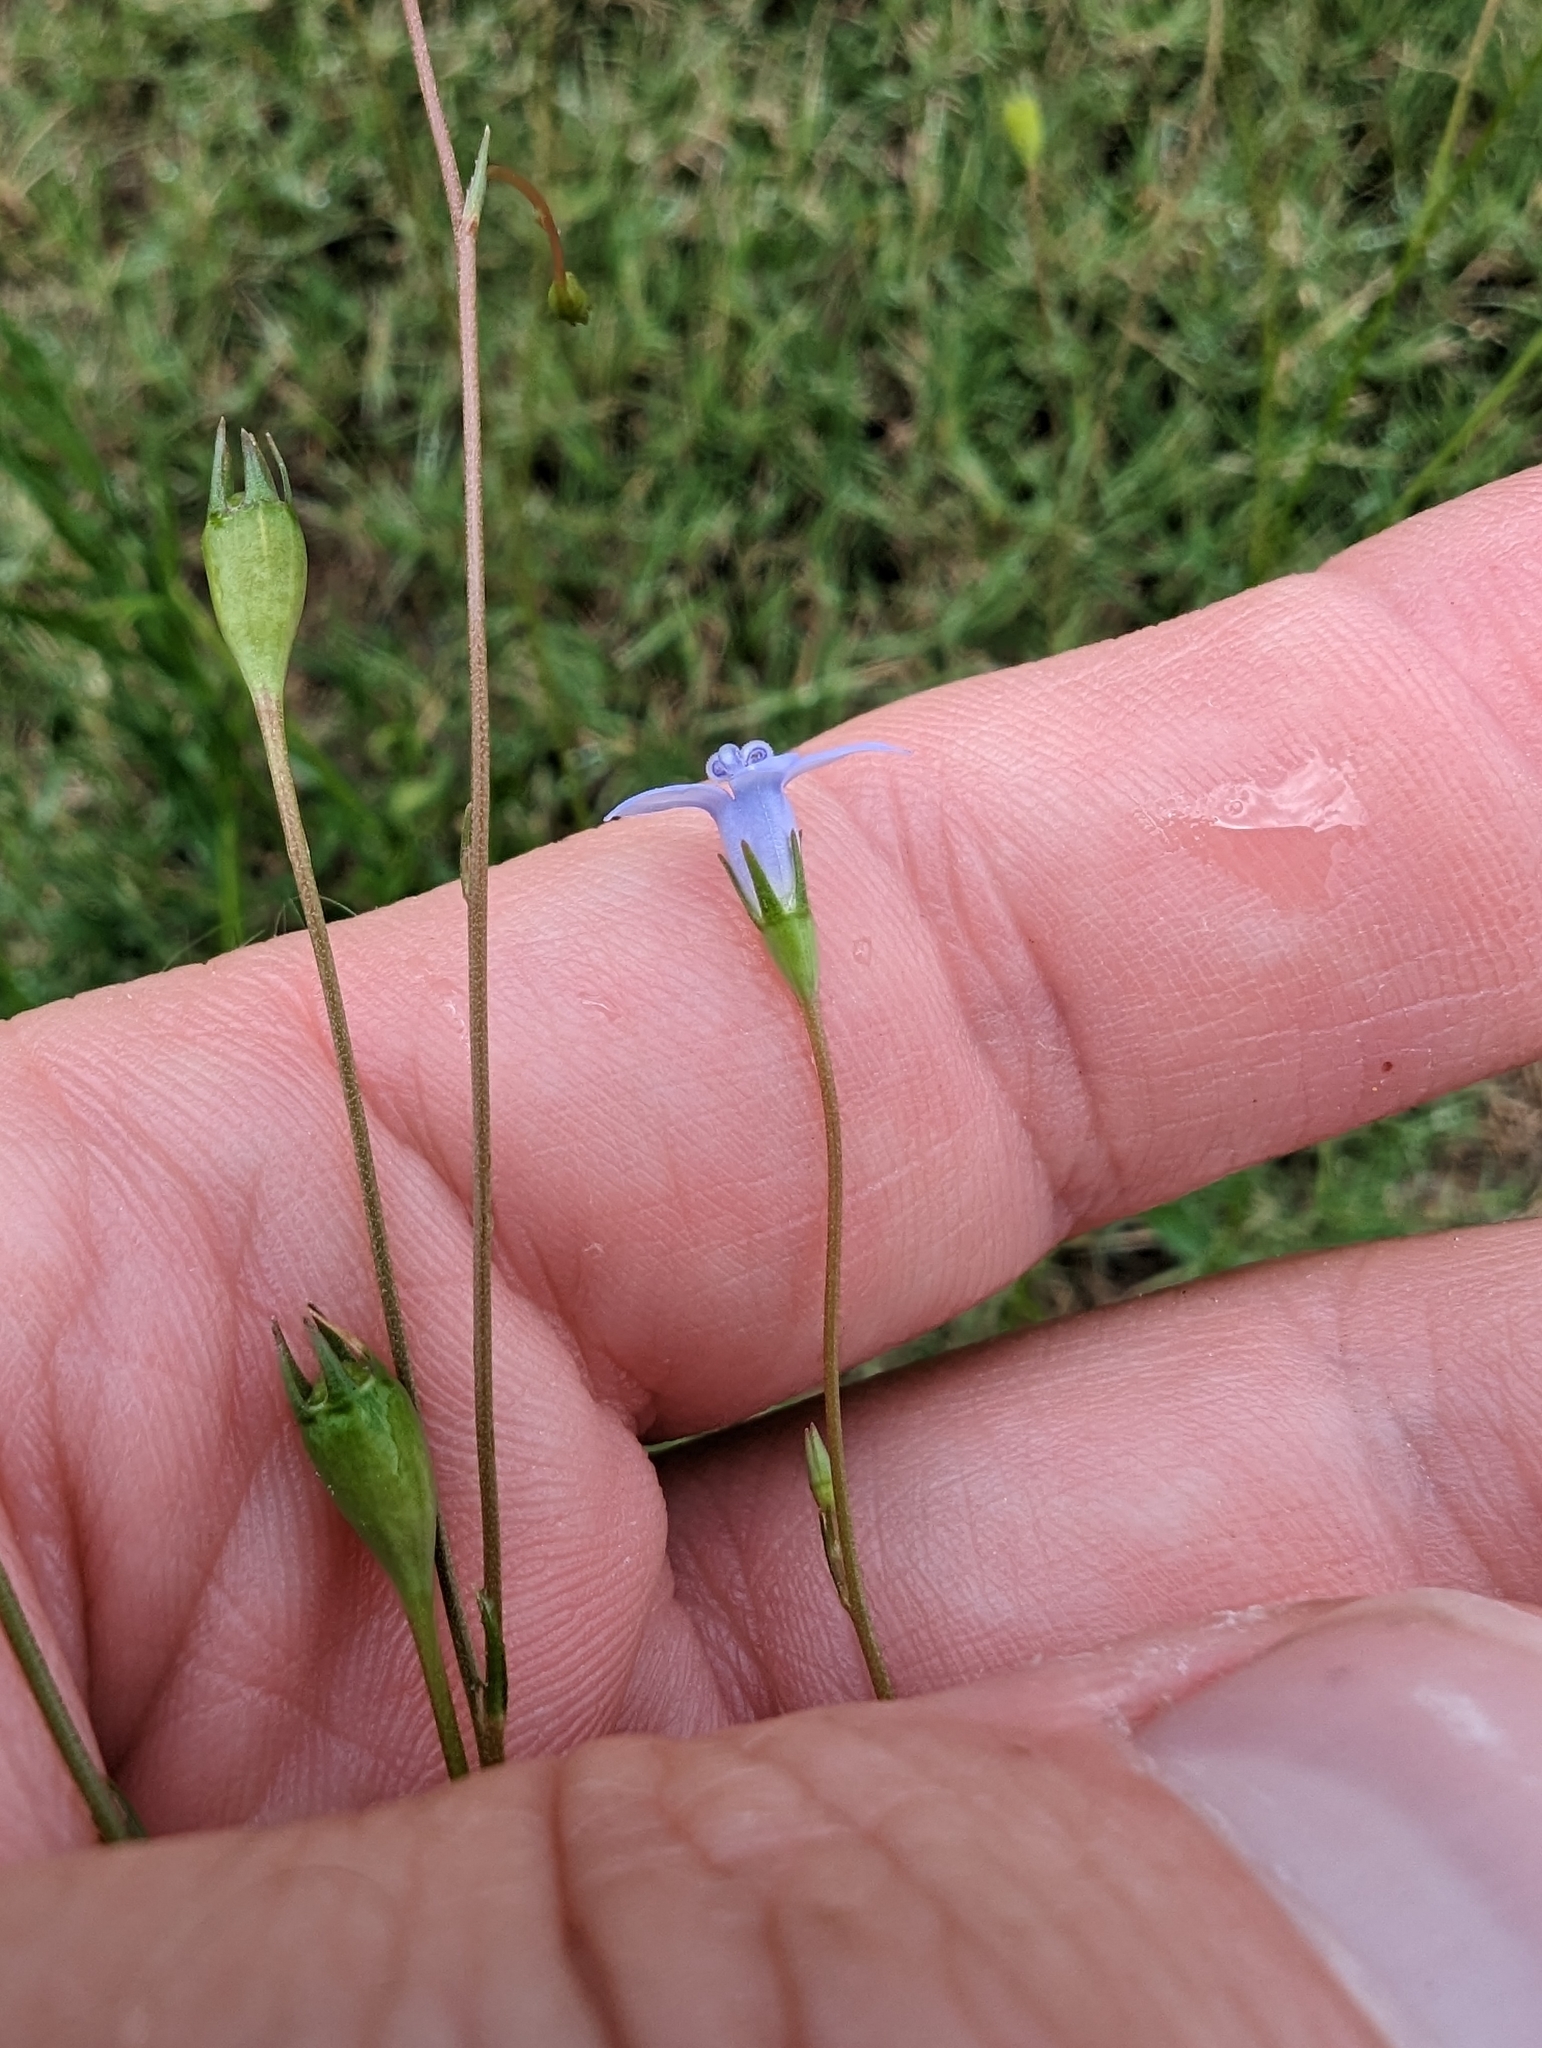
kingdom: Plantae
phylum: Tracheophyta
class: Magnoliopsida
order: Asterales
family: Campanulaceae
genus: Wahlenbergia
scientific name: Wahlenbergia marginata
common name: Southern rockbell
